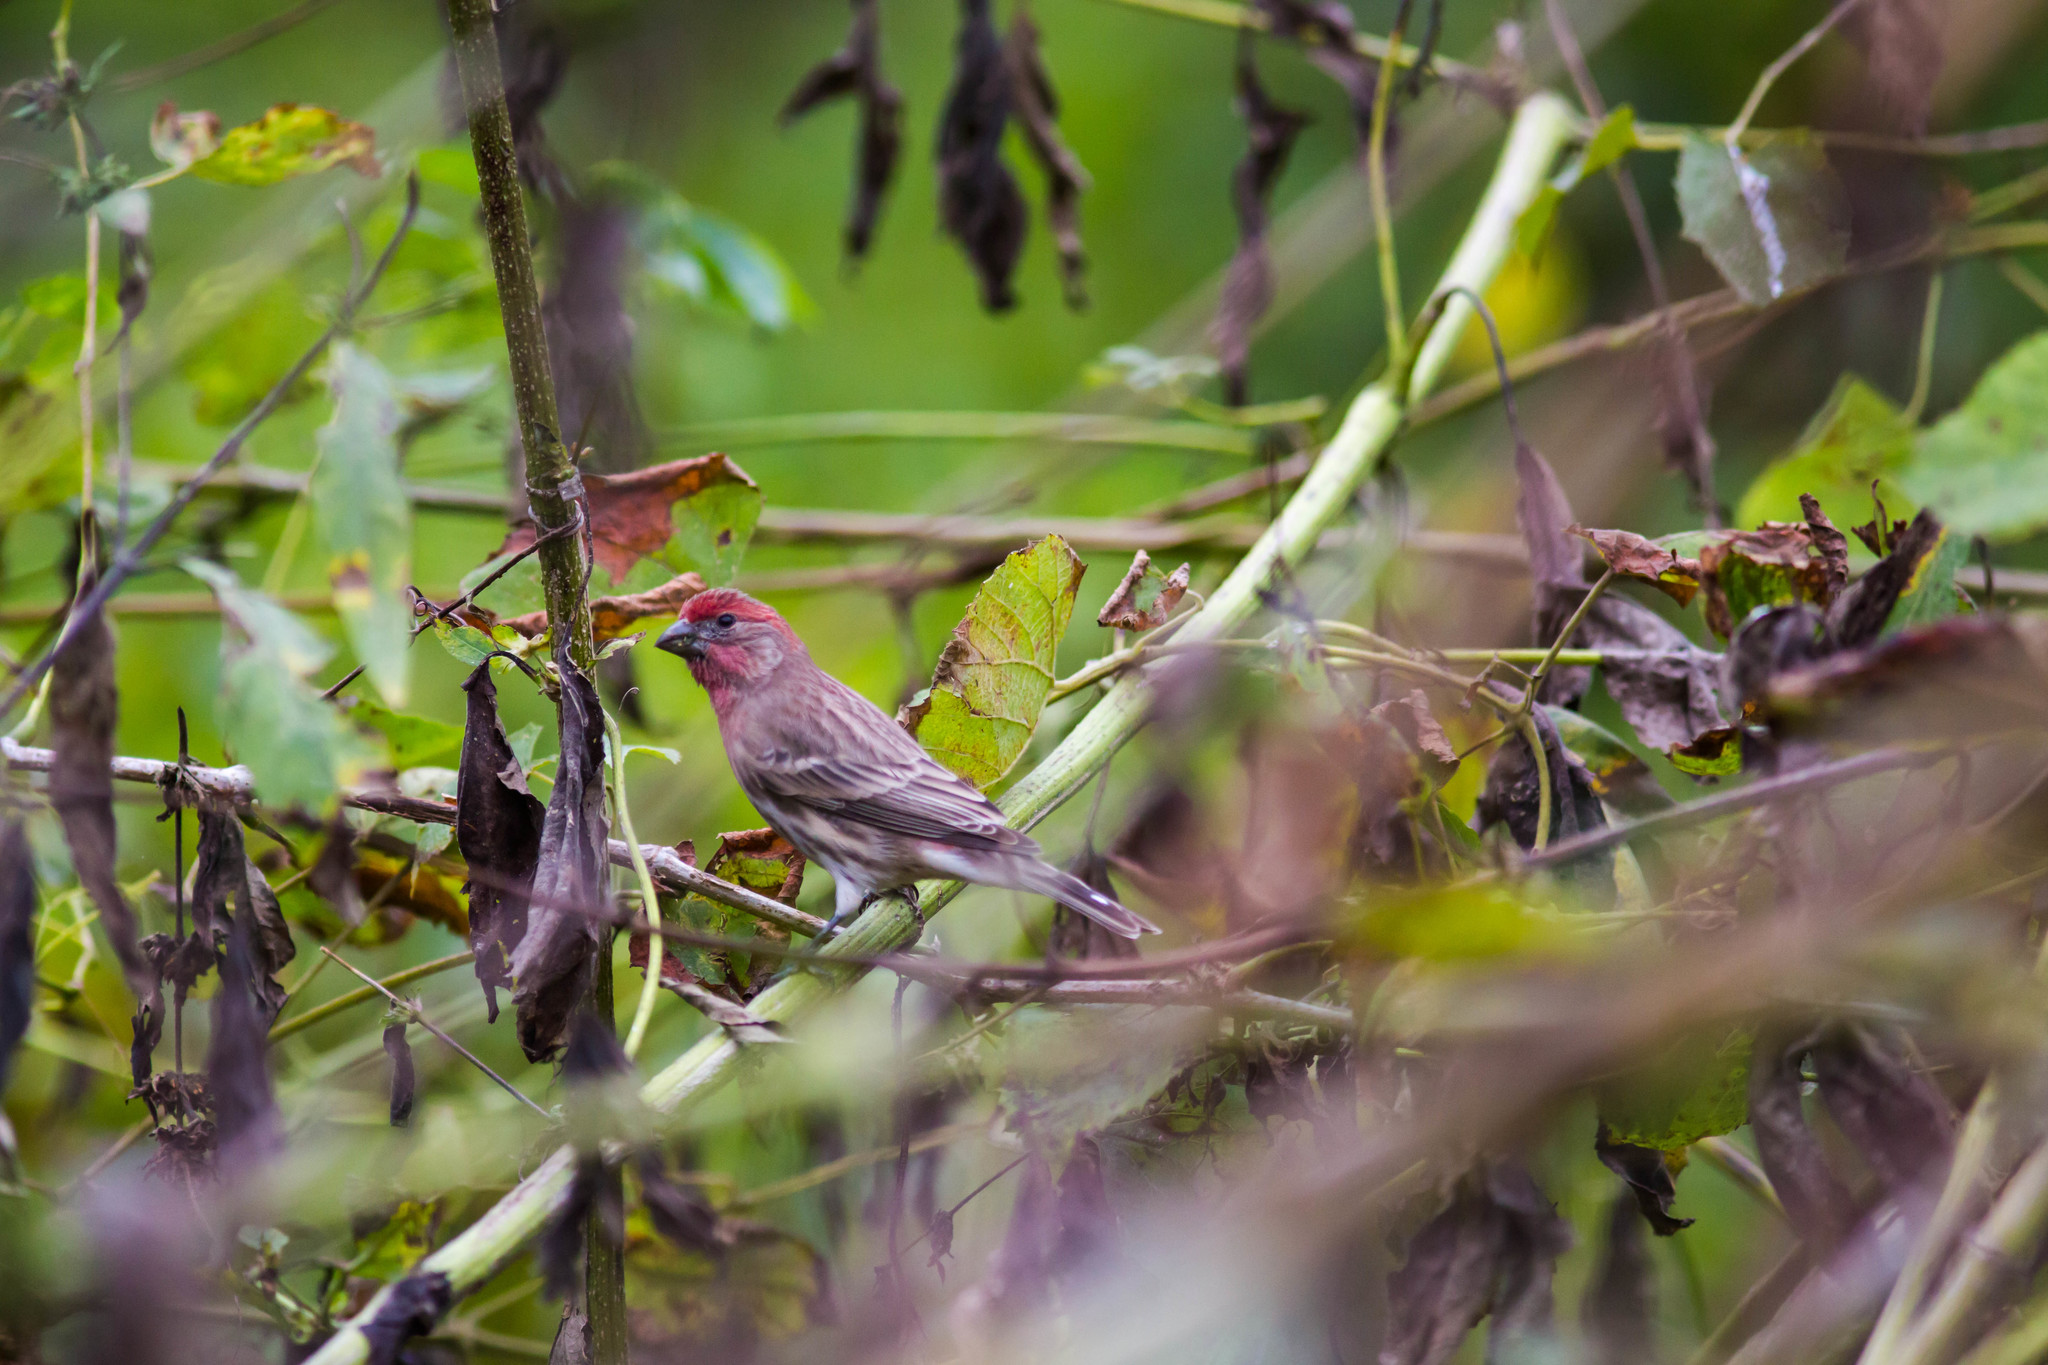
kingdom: Animalia
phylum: Chordata
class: Aves
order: Passeriformes
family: Fringillidae
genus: Haemorhous
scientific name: Haemorhous mexicanus
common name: House finch
